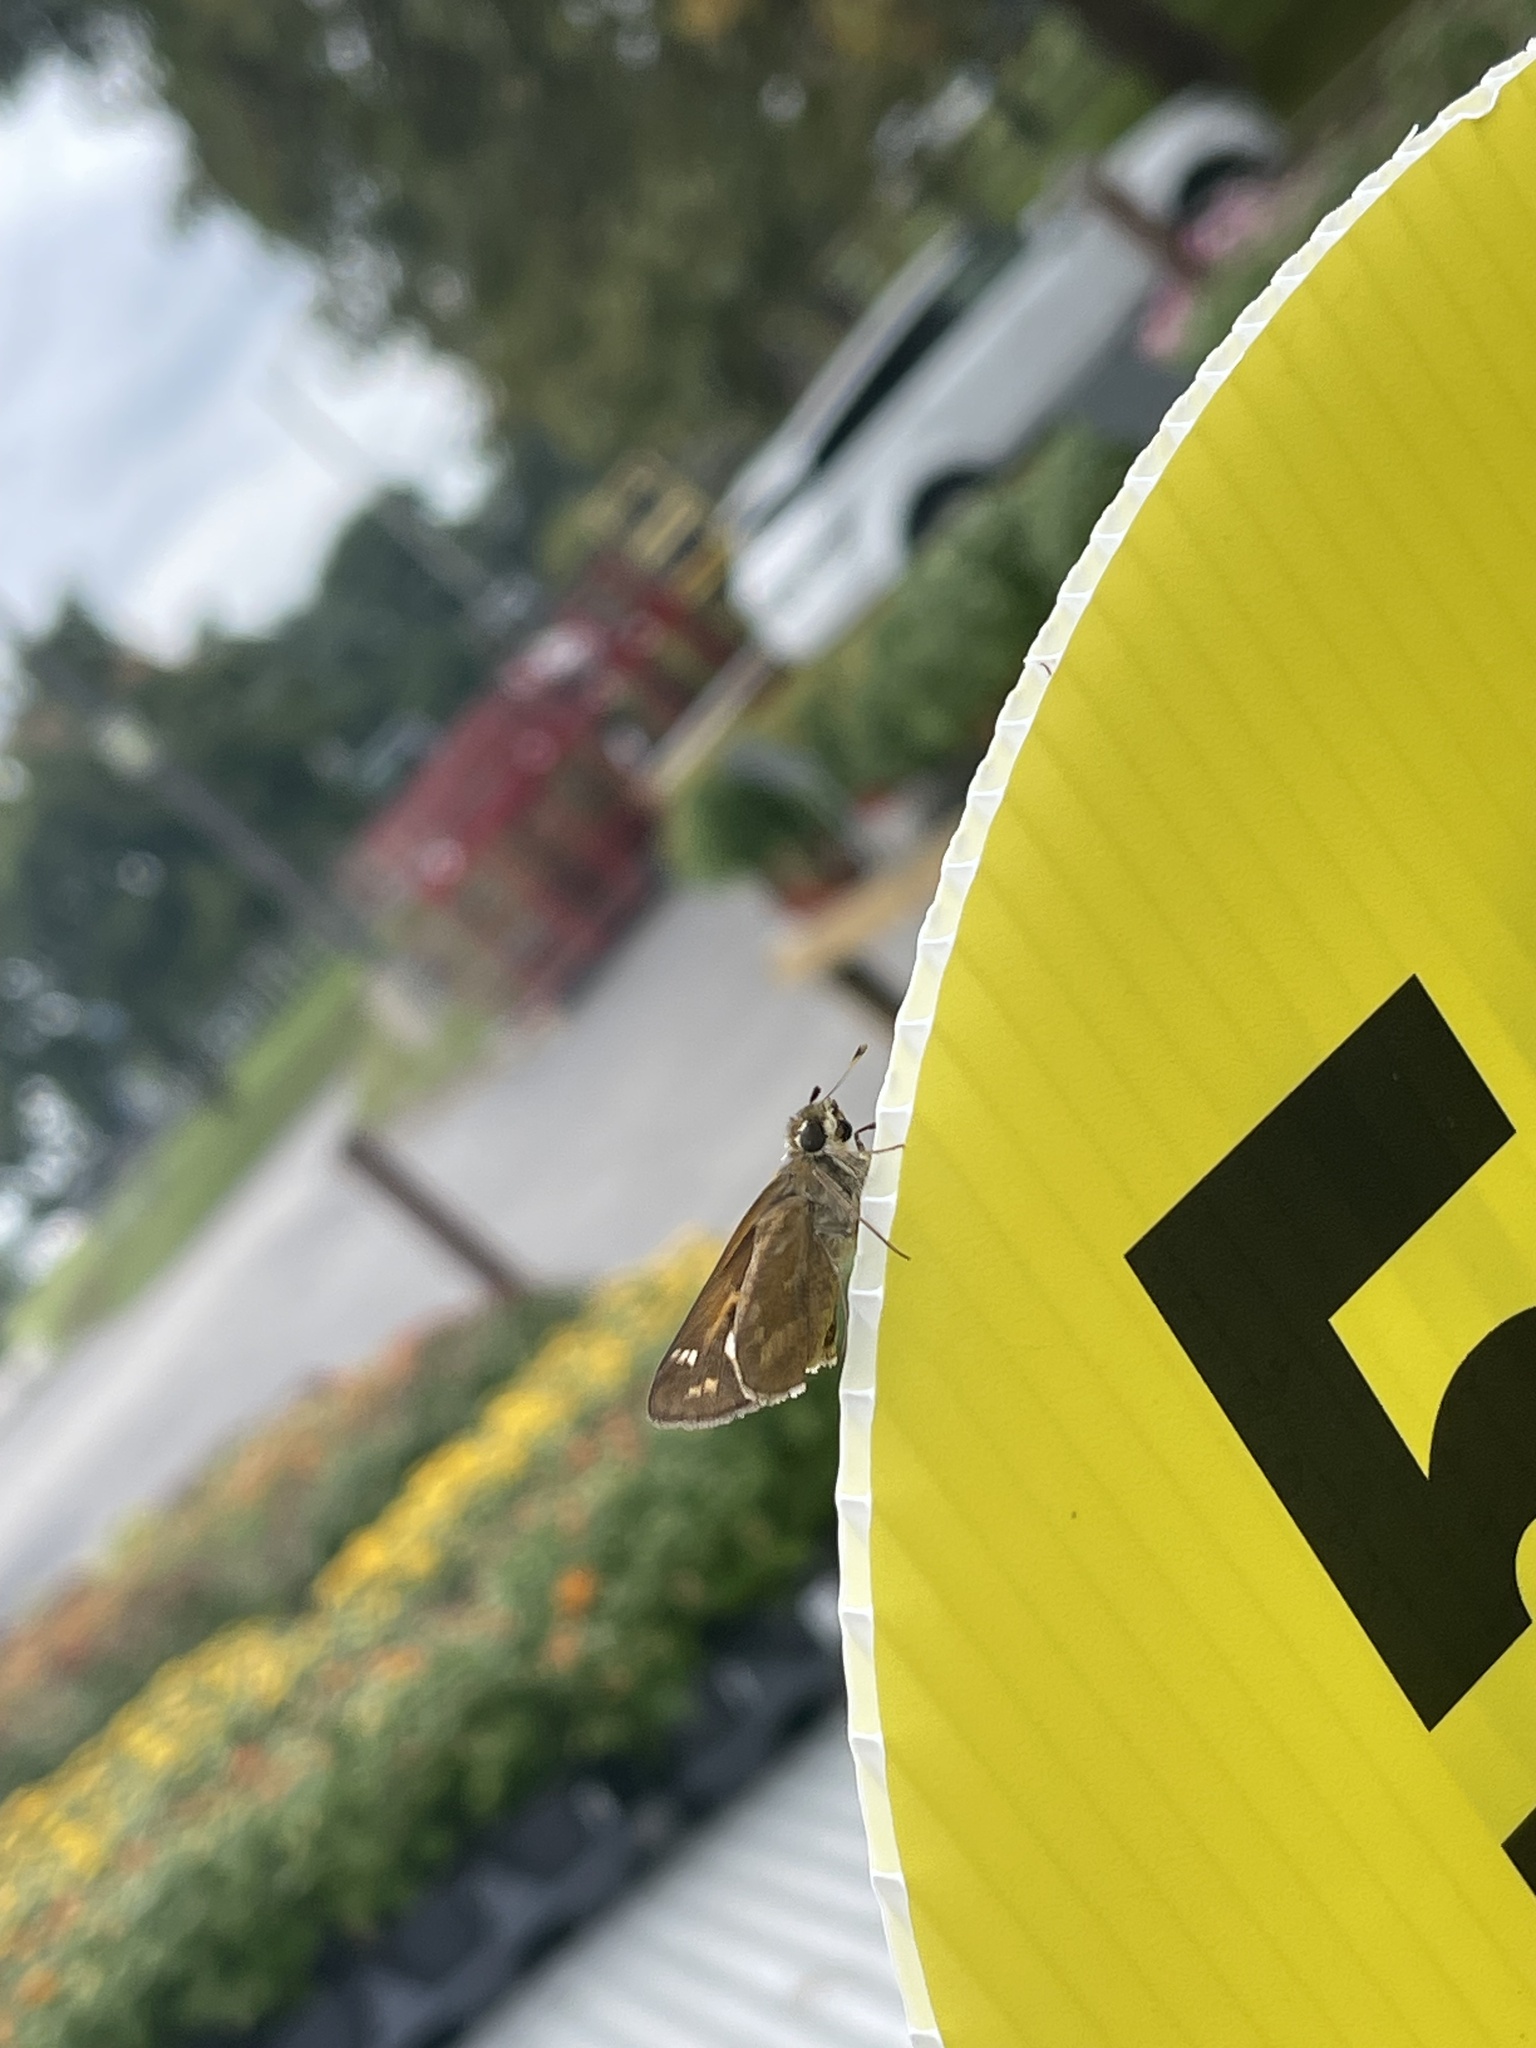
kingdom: Animalia
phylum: Arthropoda
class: Insecta
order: Lepidoptera
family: Hesperiidae
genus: Atalopedes
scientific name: Atalopedes
